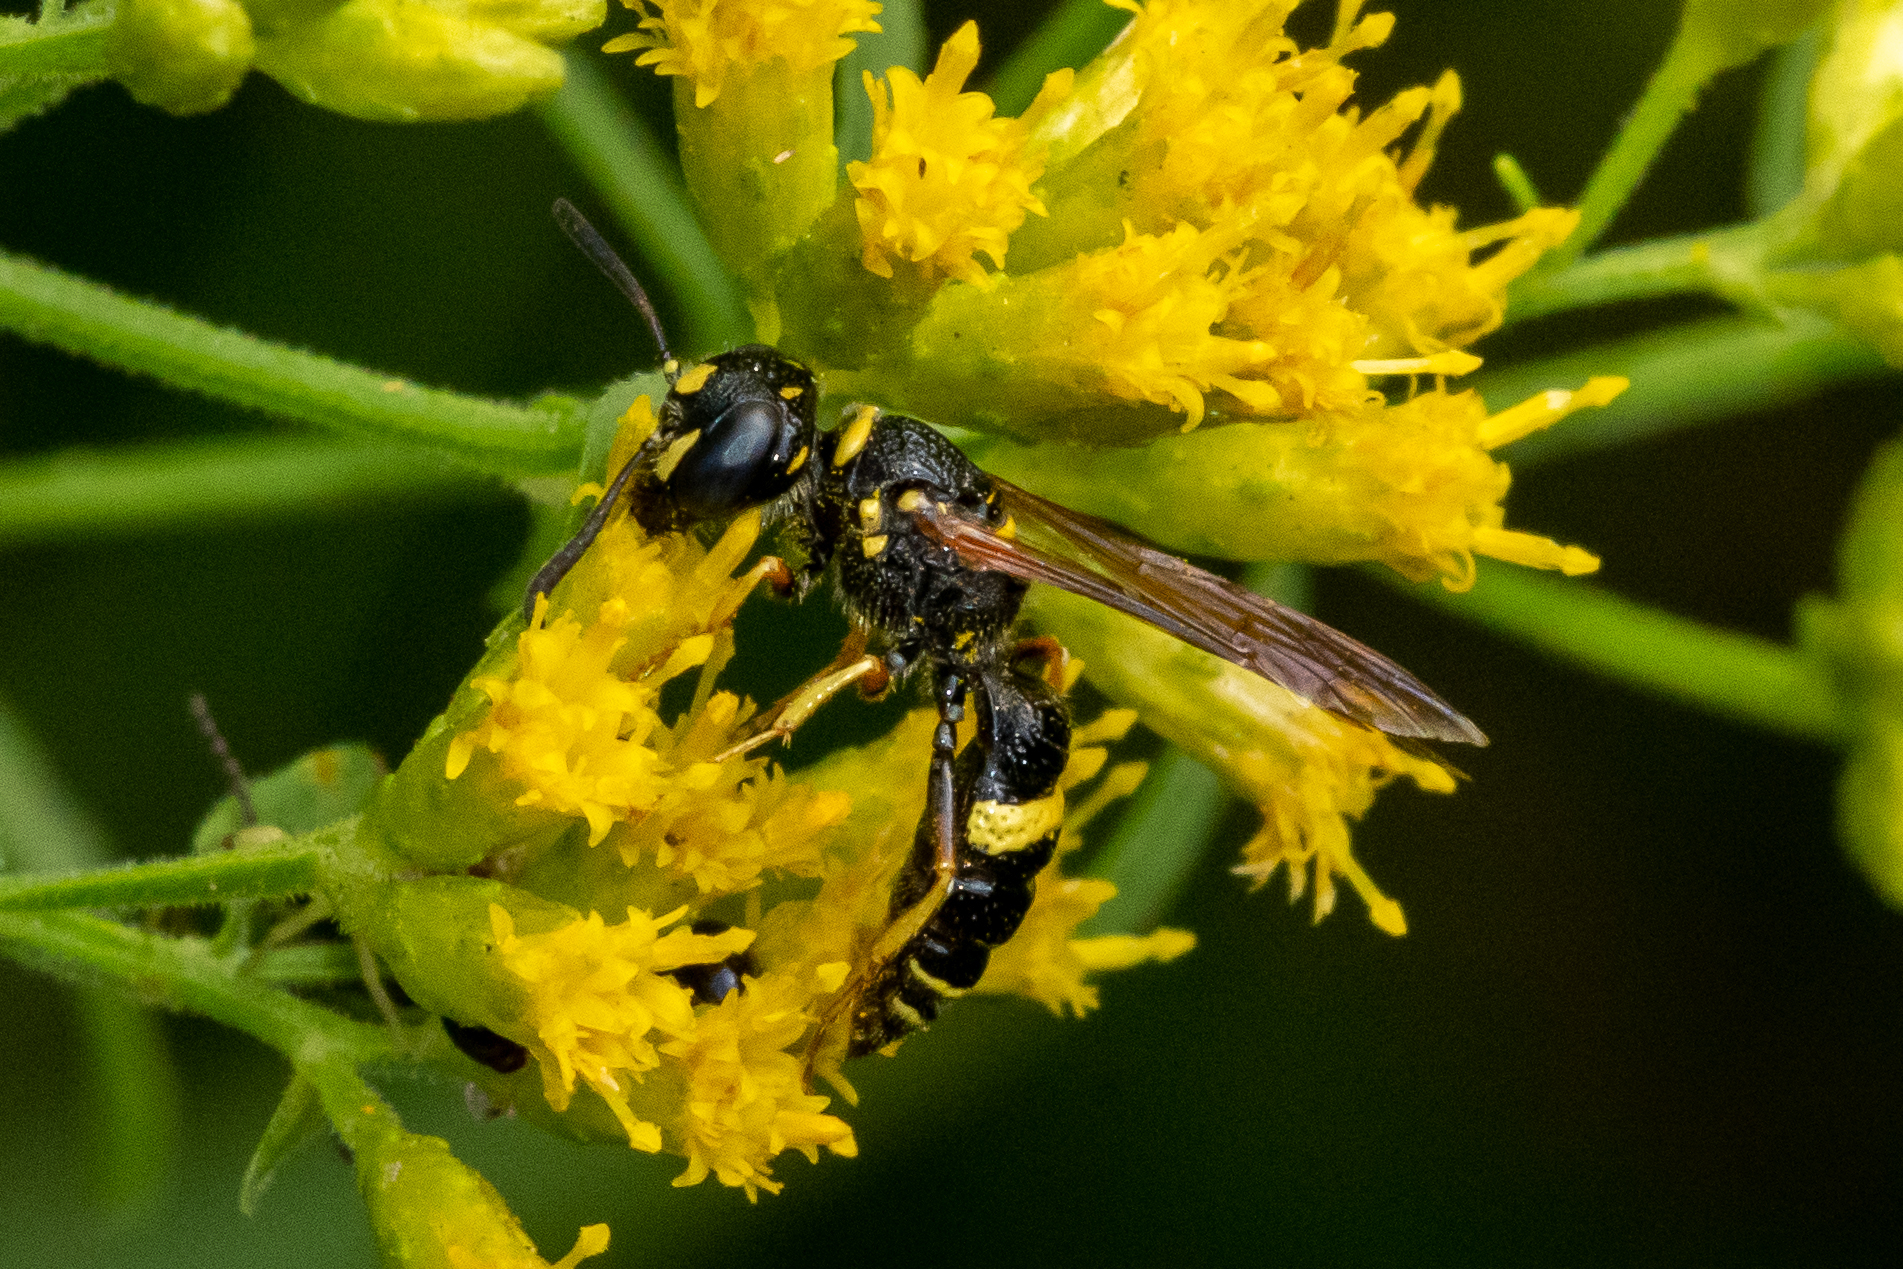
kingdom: Animalia
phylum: Arthropoda
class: Insecta
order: Hymenoptera
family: Crabronidae
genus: Philanthus
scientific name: Philanthus gibbosus
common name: Humped beewolf
